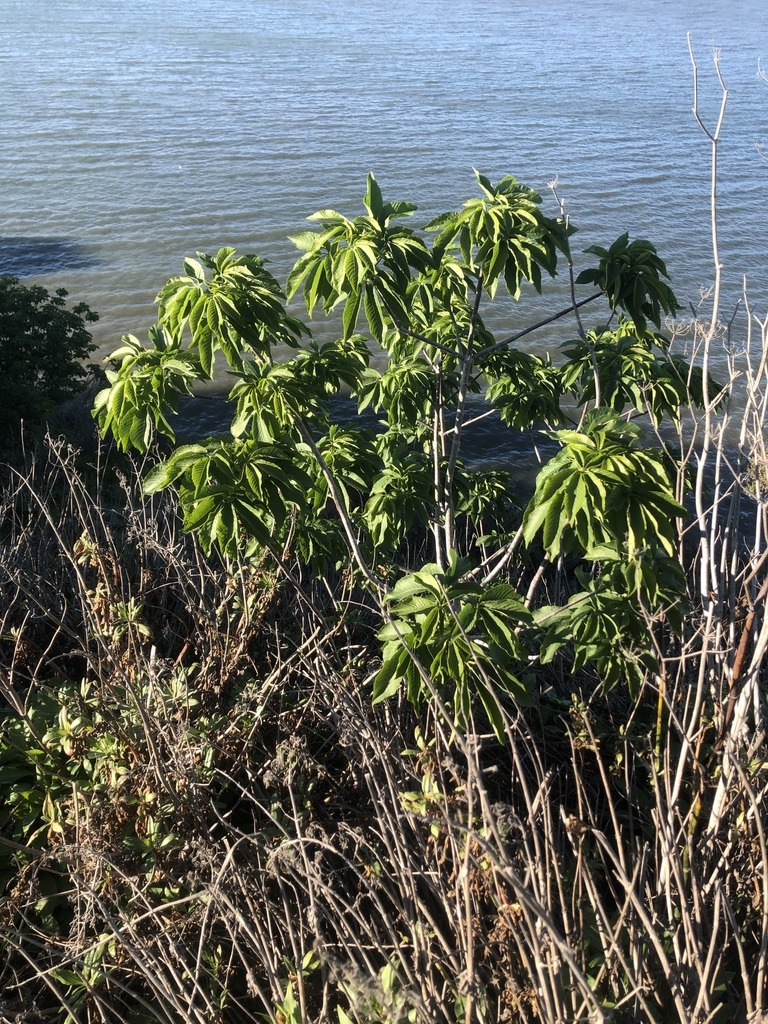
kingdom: Plantae
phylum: Tracheophyta
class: Magnoliopsida
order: Sapindales
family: Sapindaceae
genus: Aesculus
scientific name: Aesculus californica
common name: California buckeye
